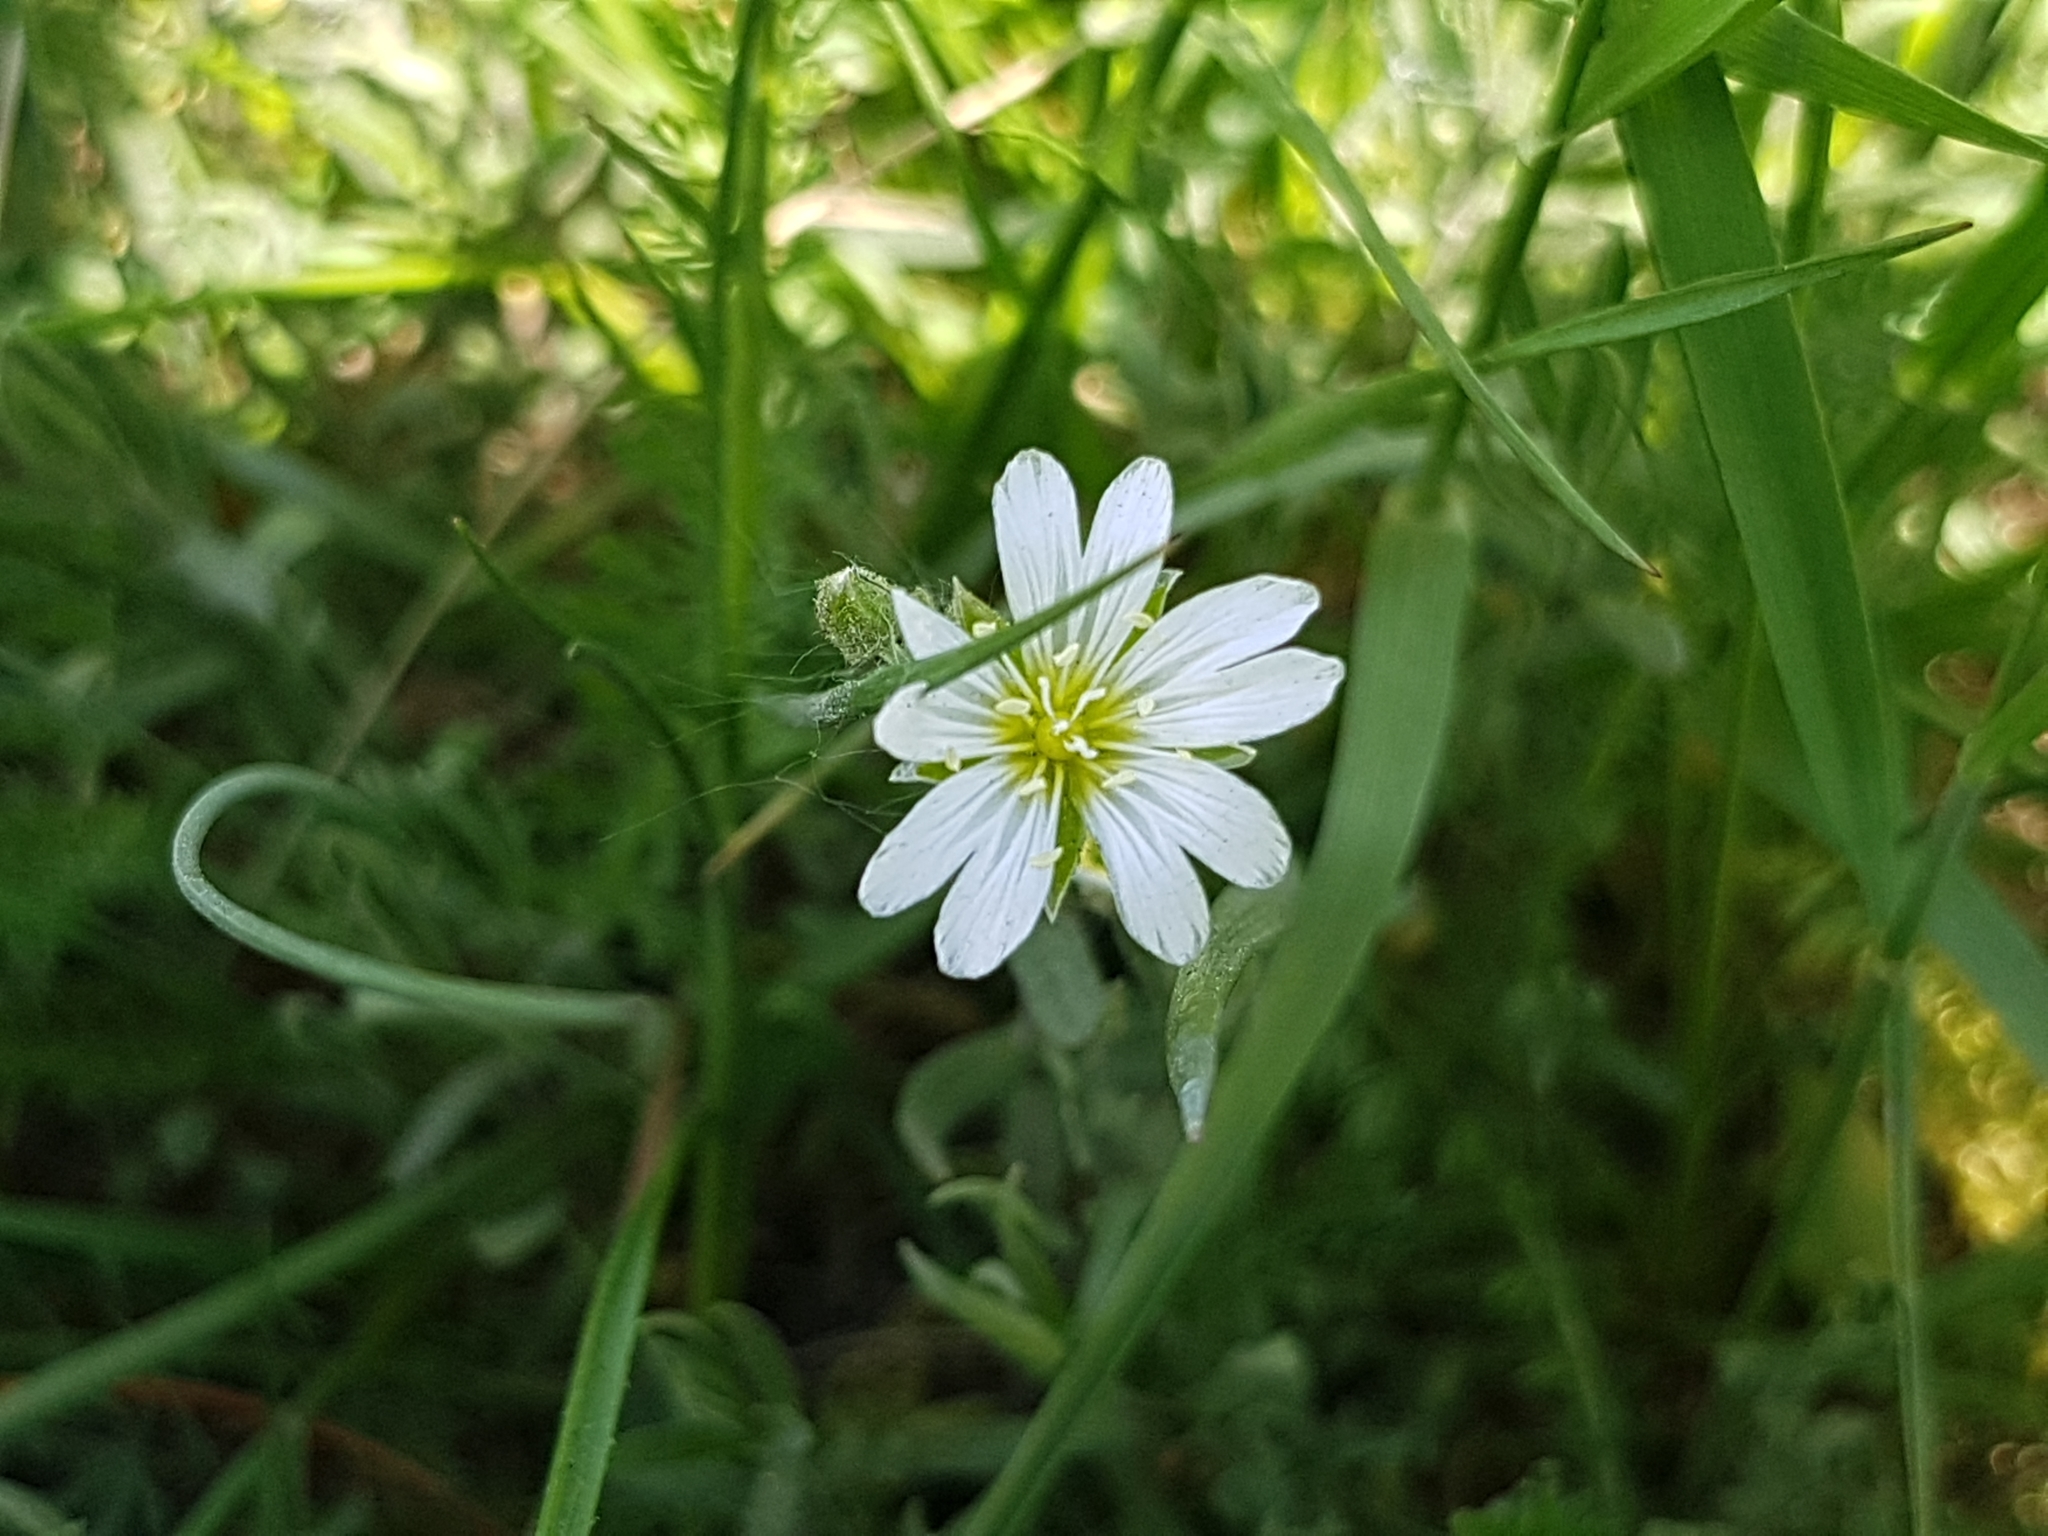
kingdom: Plantae
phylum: Tracheophyta
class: Magnoliopsida
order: Caryophyllales
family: Caryophyllaceae
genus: Cerastium
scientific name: Cerastium arvense
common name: Field mouse-ear
